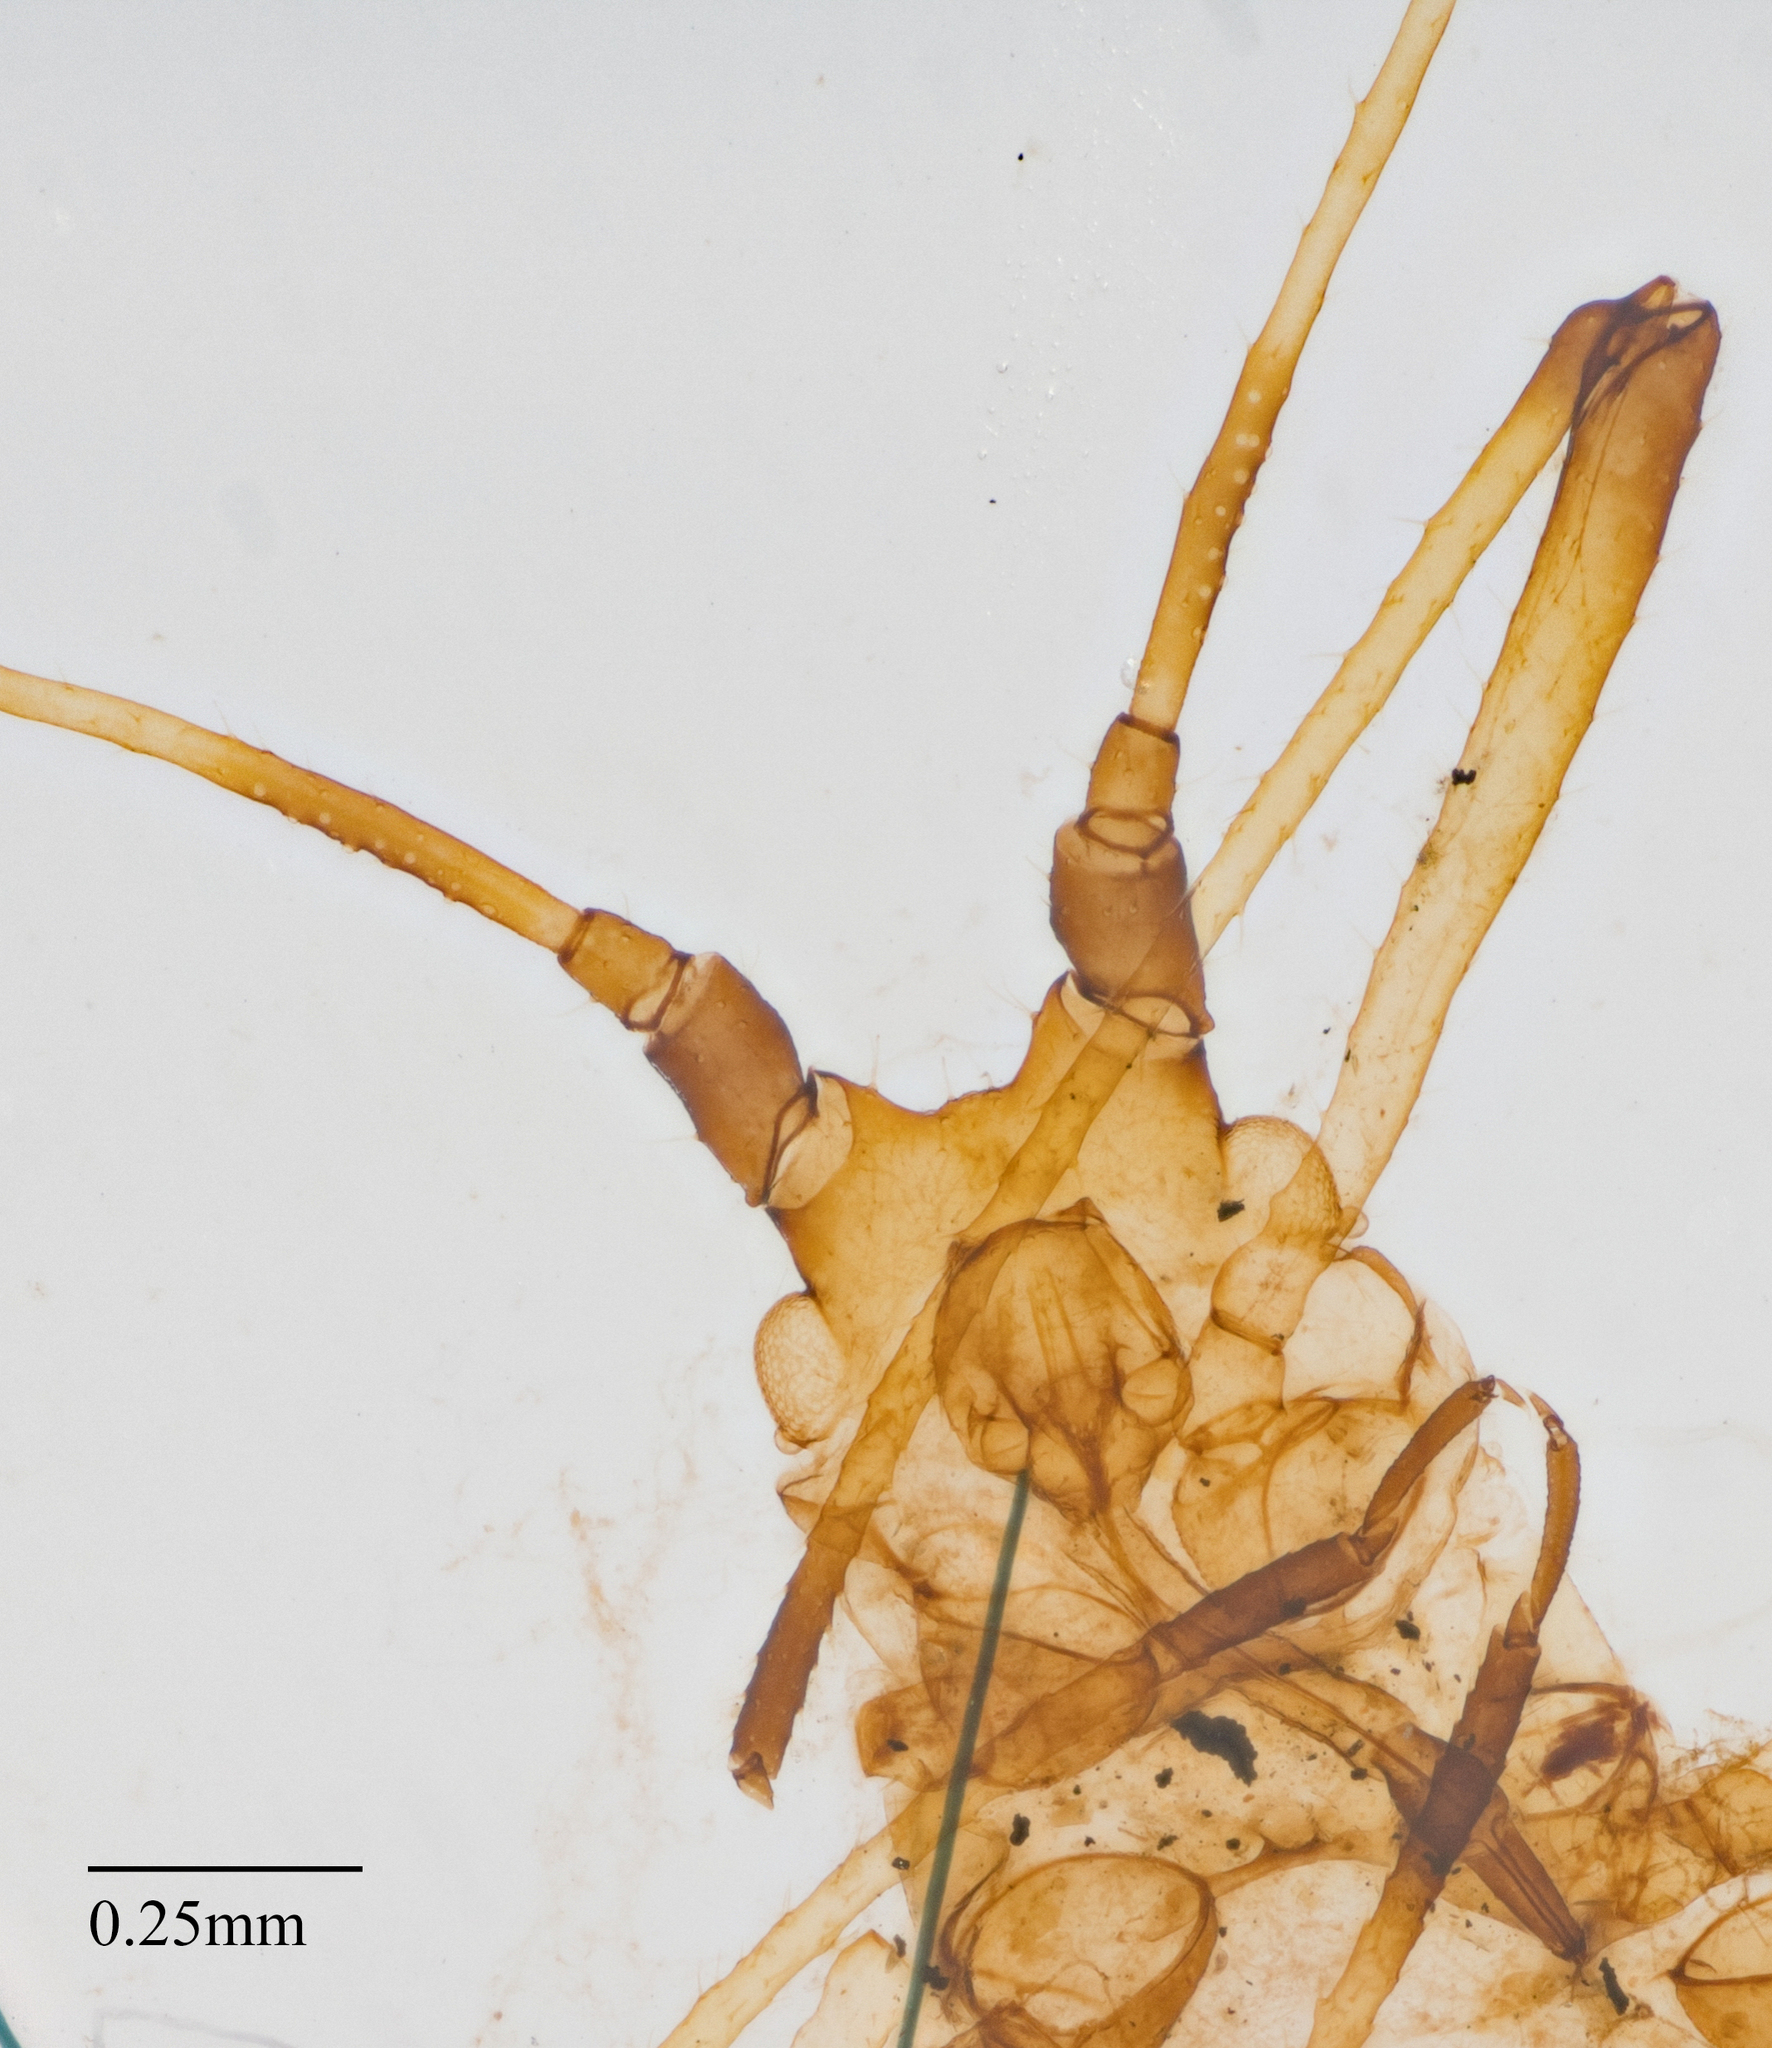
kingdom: Animalia
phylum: Arthropoda
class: Insecta
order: Hemiptera
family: Aphididae
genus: Uroleucon
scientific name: Uroleucon sonchi
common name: Large sowthistle aphid
